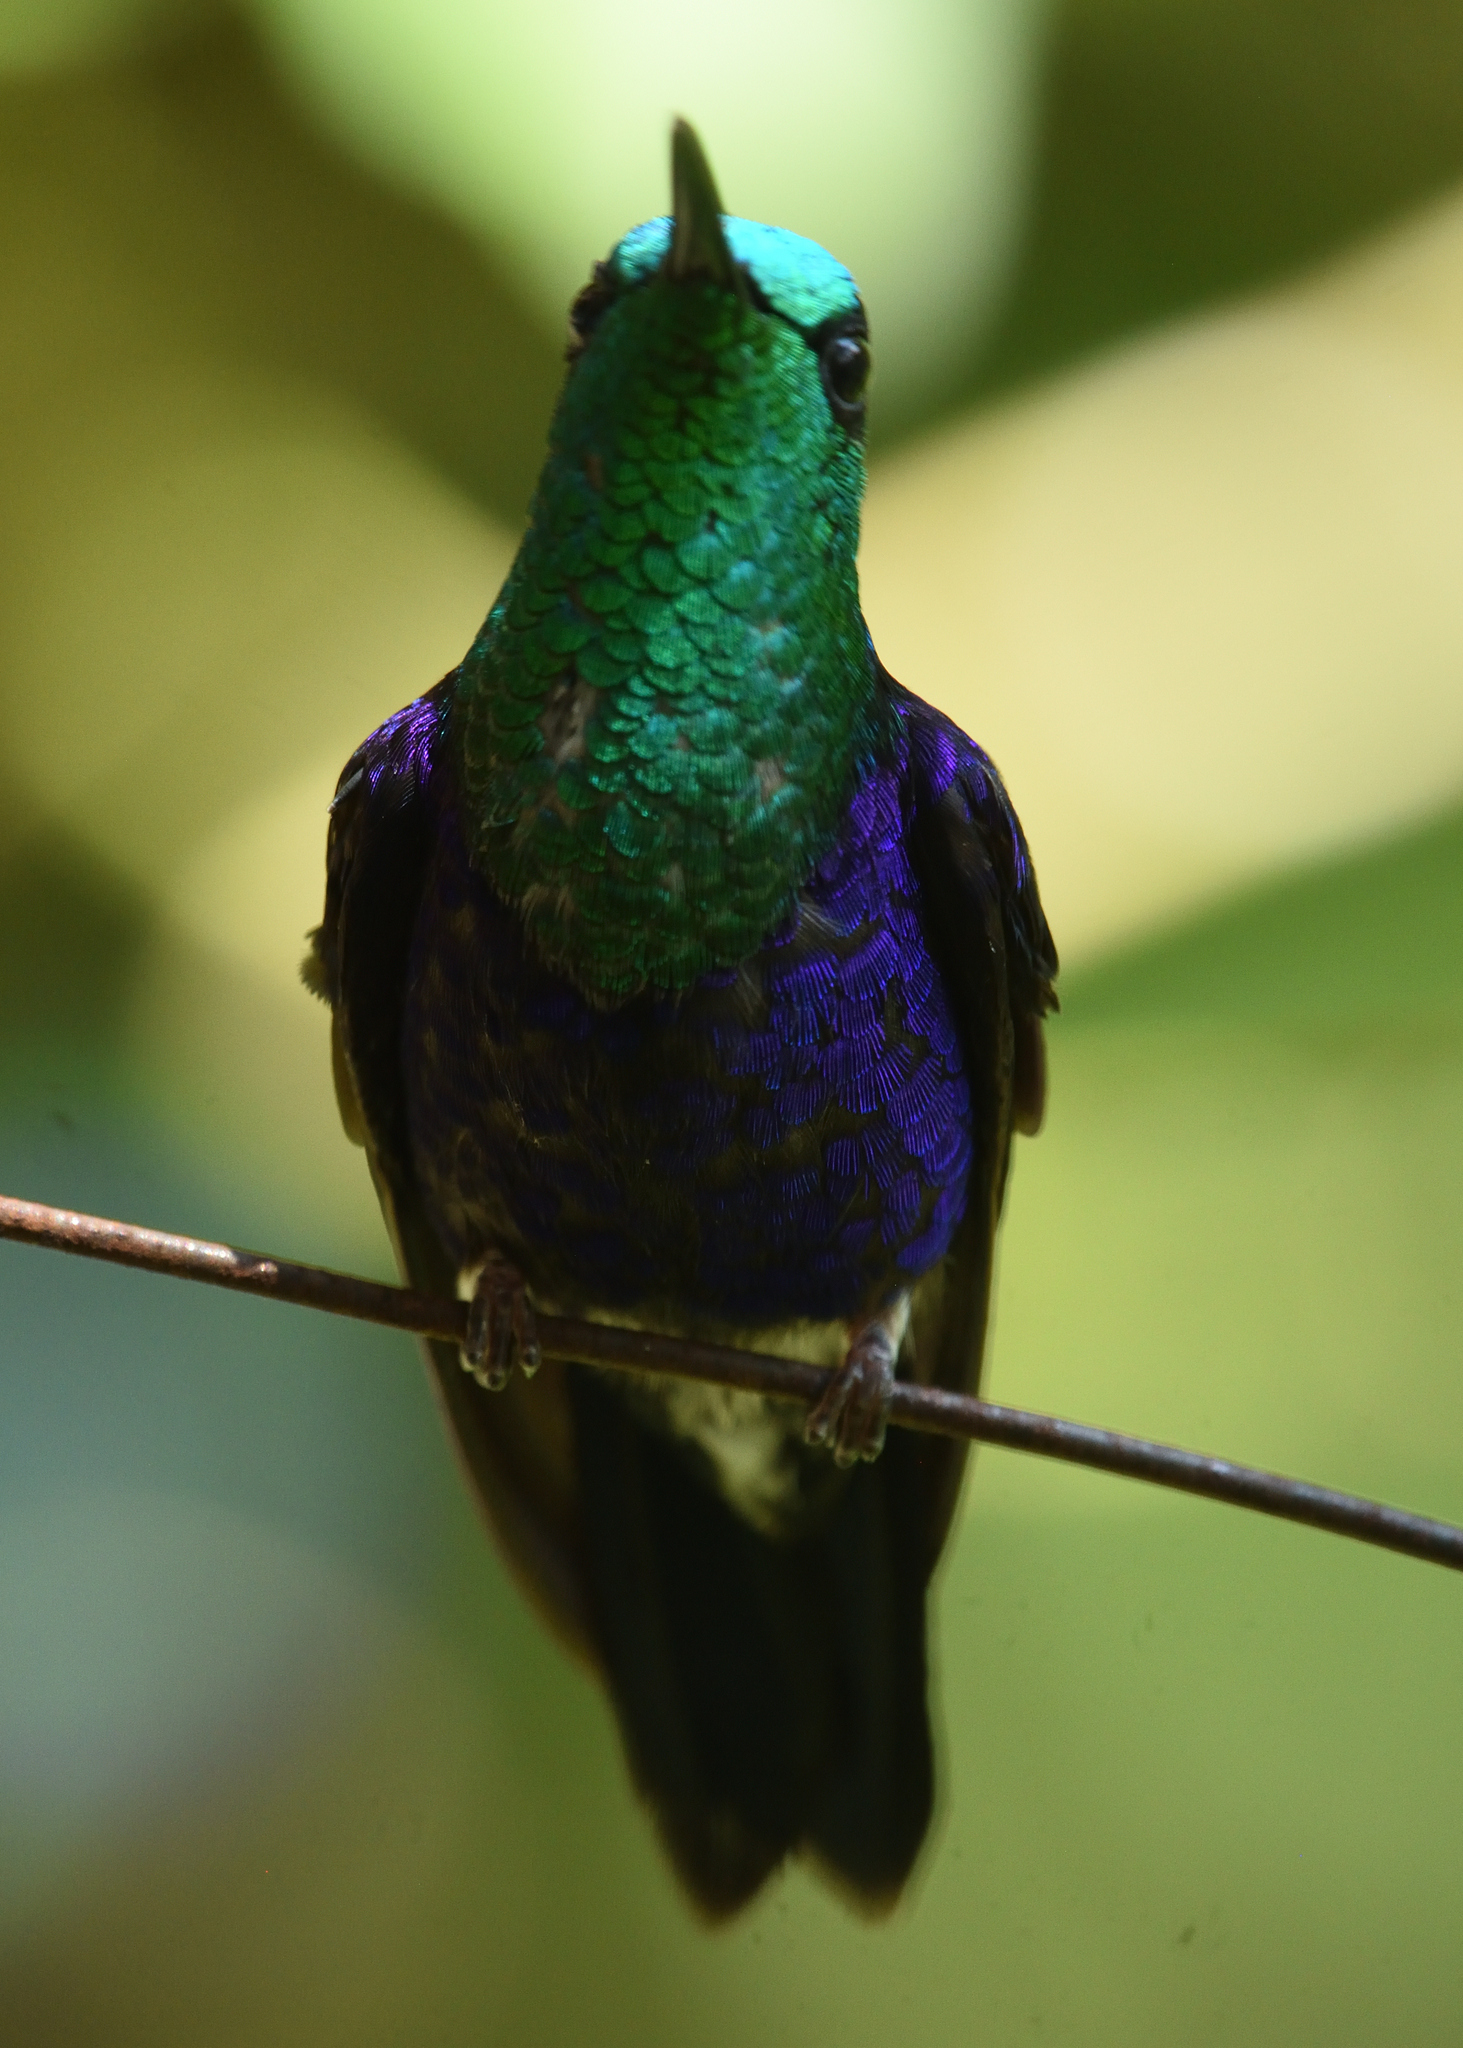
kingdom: Animalia
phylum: Chordata
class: Aves
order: Apodiformes
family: Trochilidae
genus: Thalurania
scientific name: Thalurania colombica
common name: Crowned woodnymph
